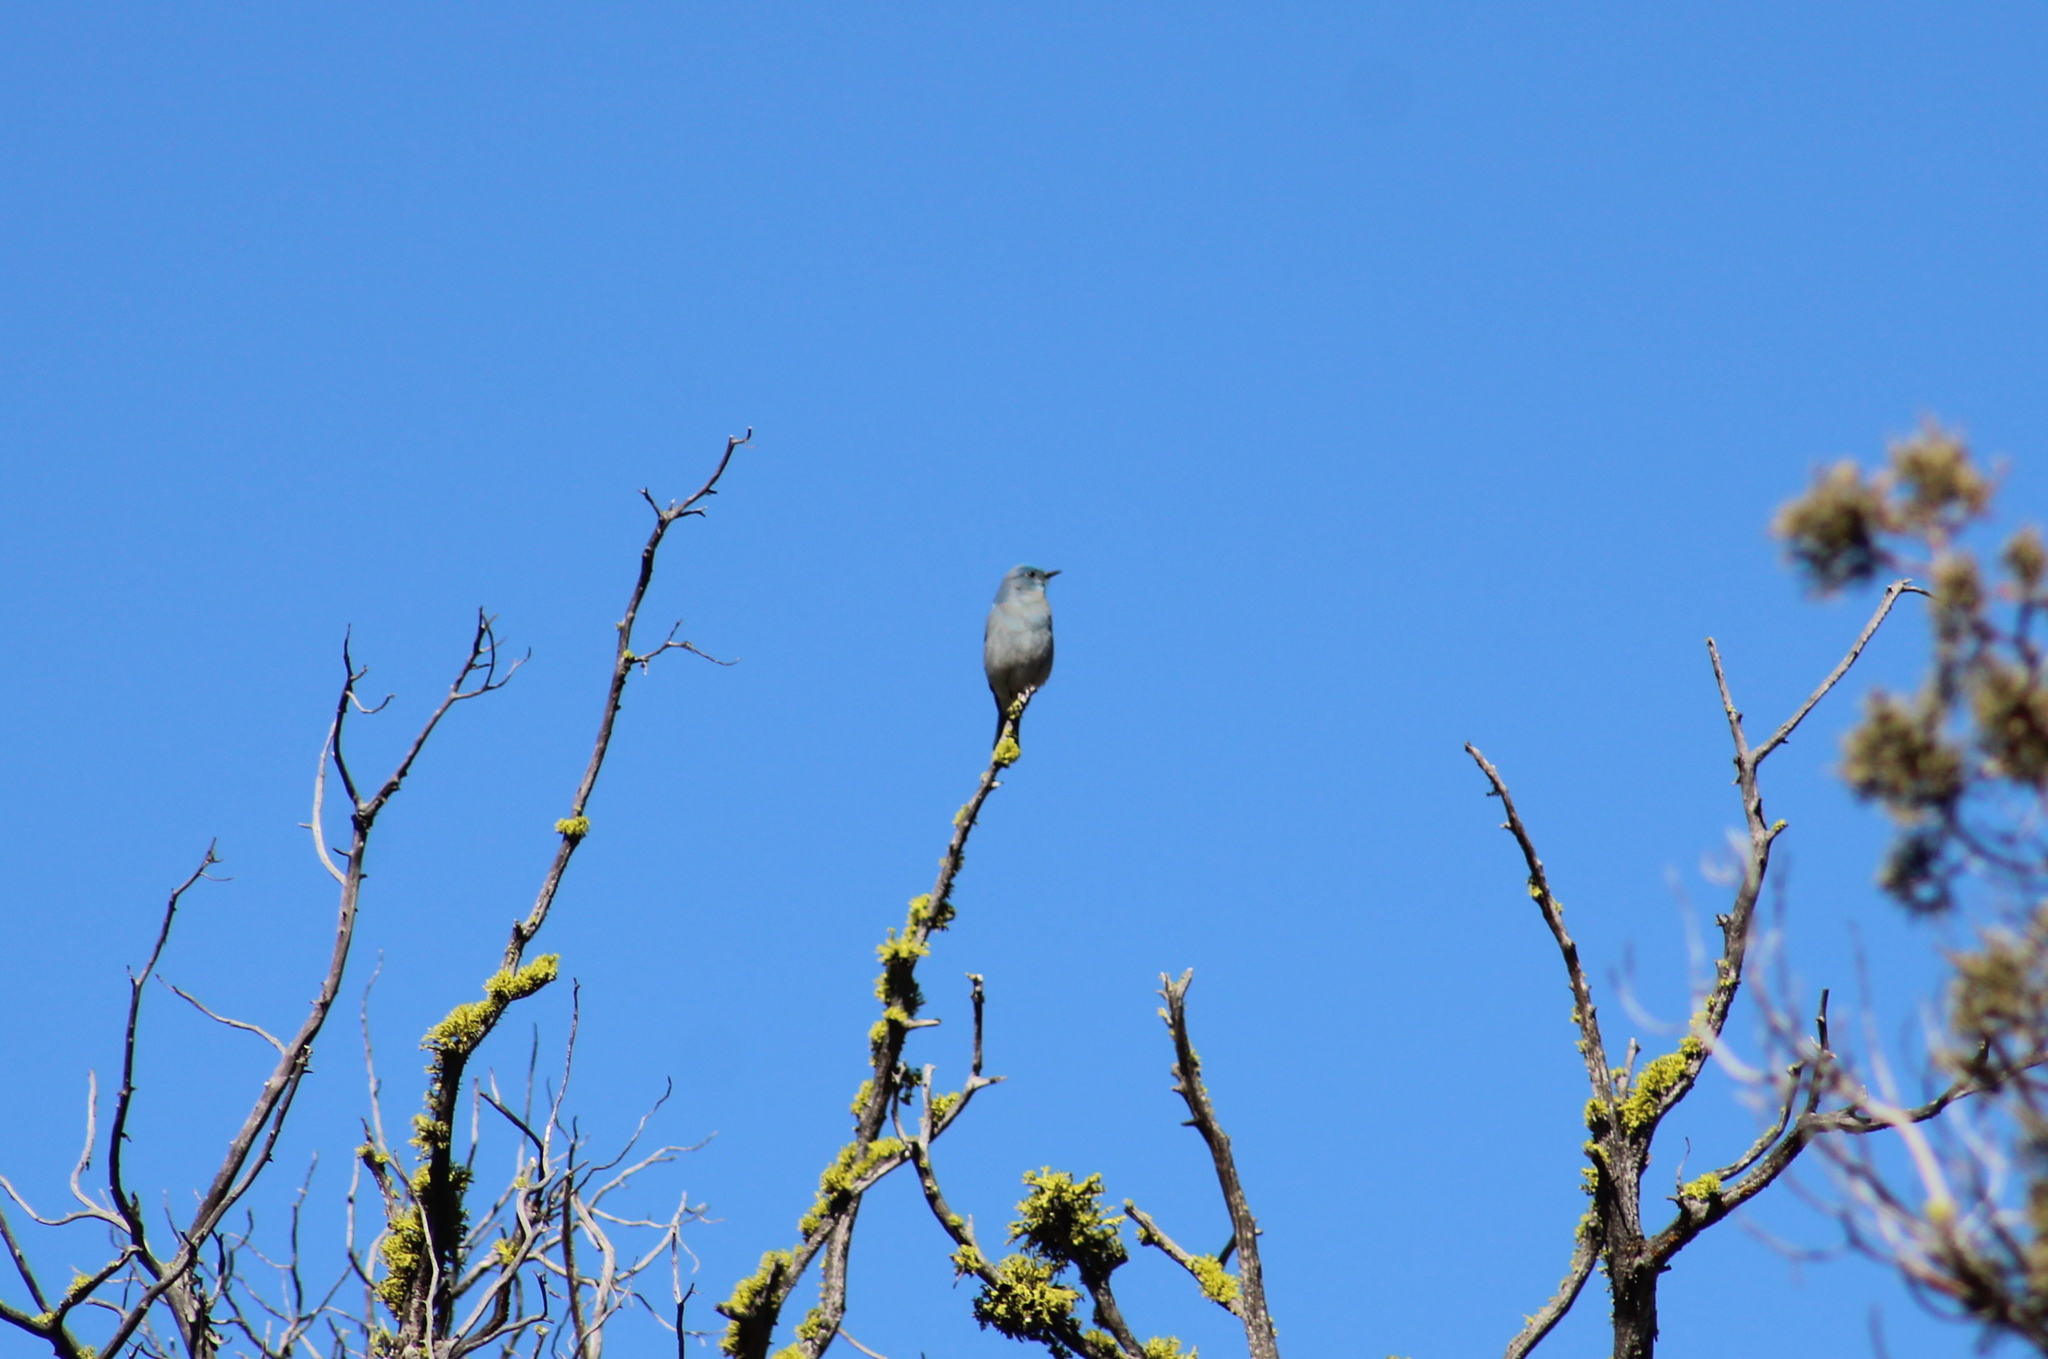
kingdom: Animalia
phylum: Chordata
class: Aves
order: Passeriformes
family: Turdidae
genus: Sialia
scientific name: Sialia currucoides
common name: Mountain bluebird
